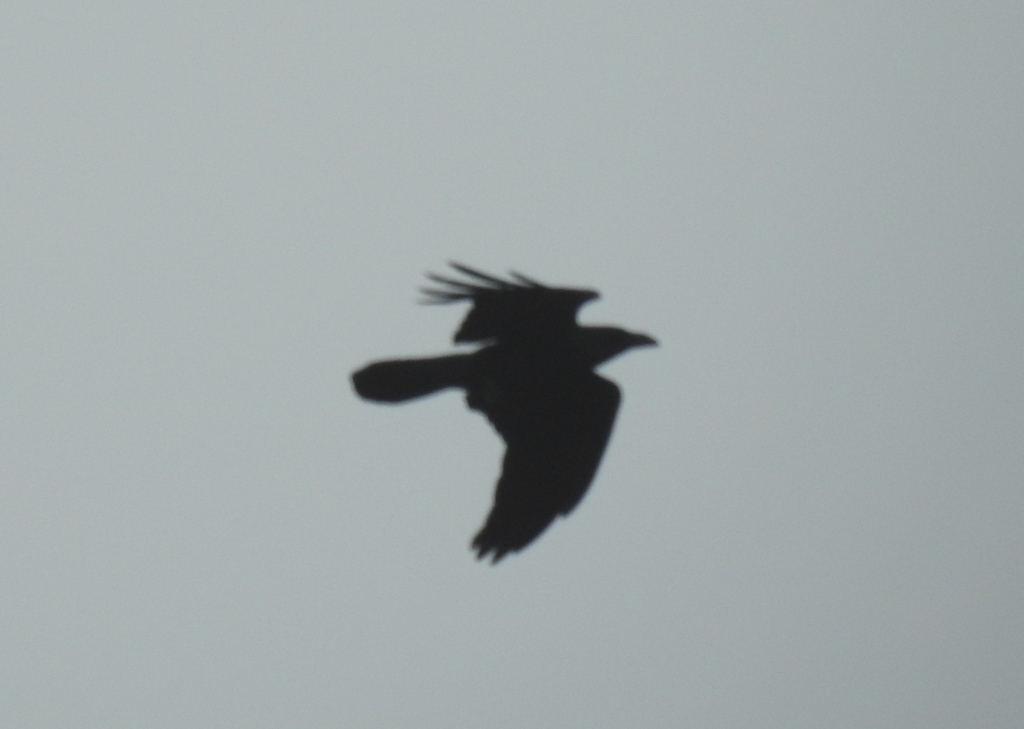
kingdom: Animalia
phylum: Chordata
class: Aves
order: Passeriformes
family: Corvidae
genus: Corvus
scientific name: Corvus corax
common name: Common raven
